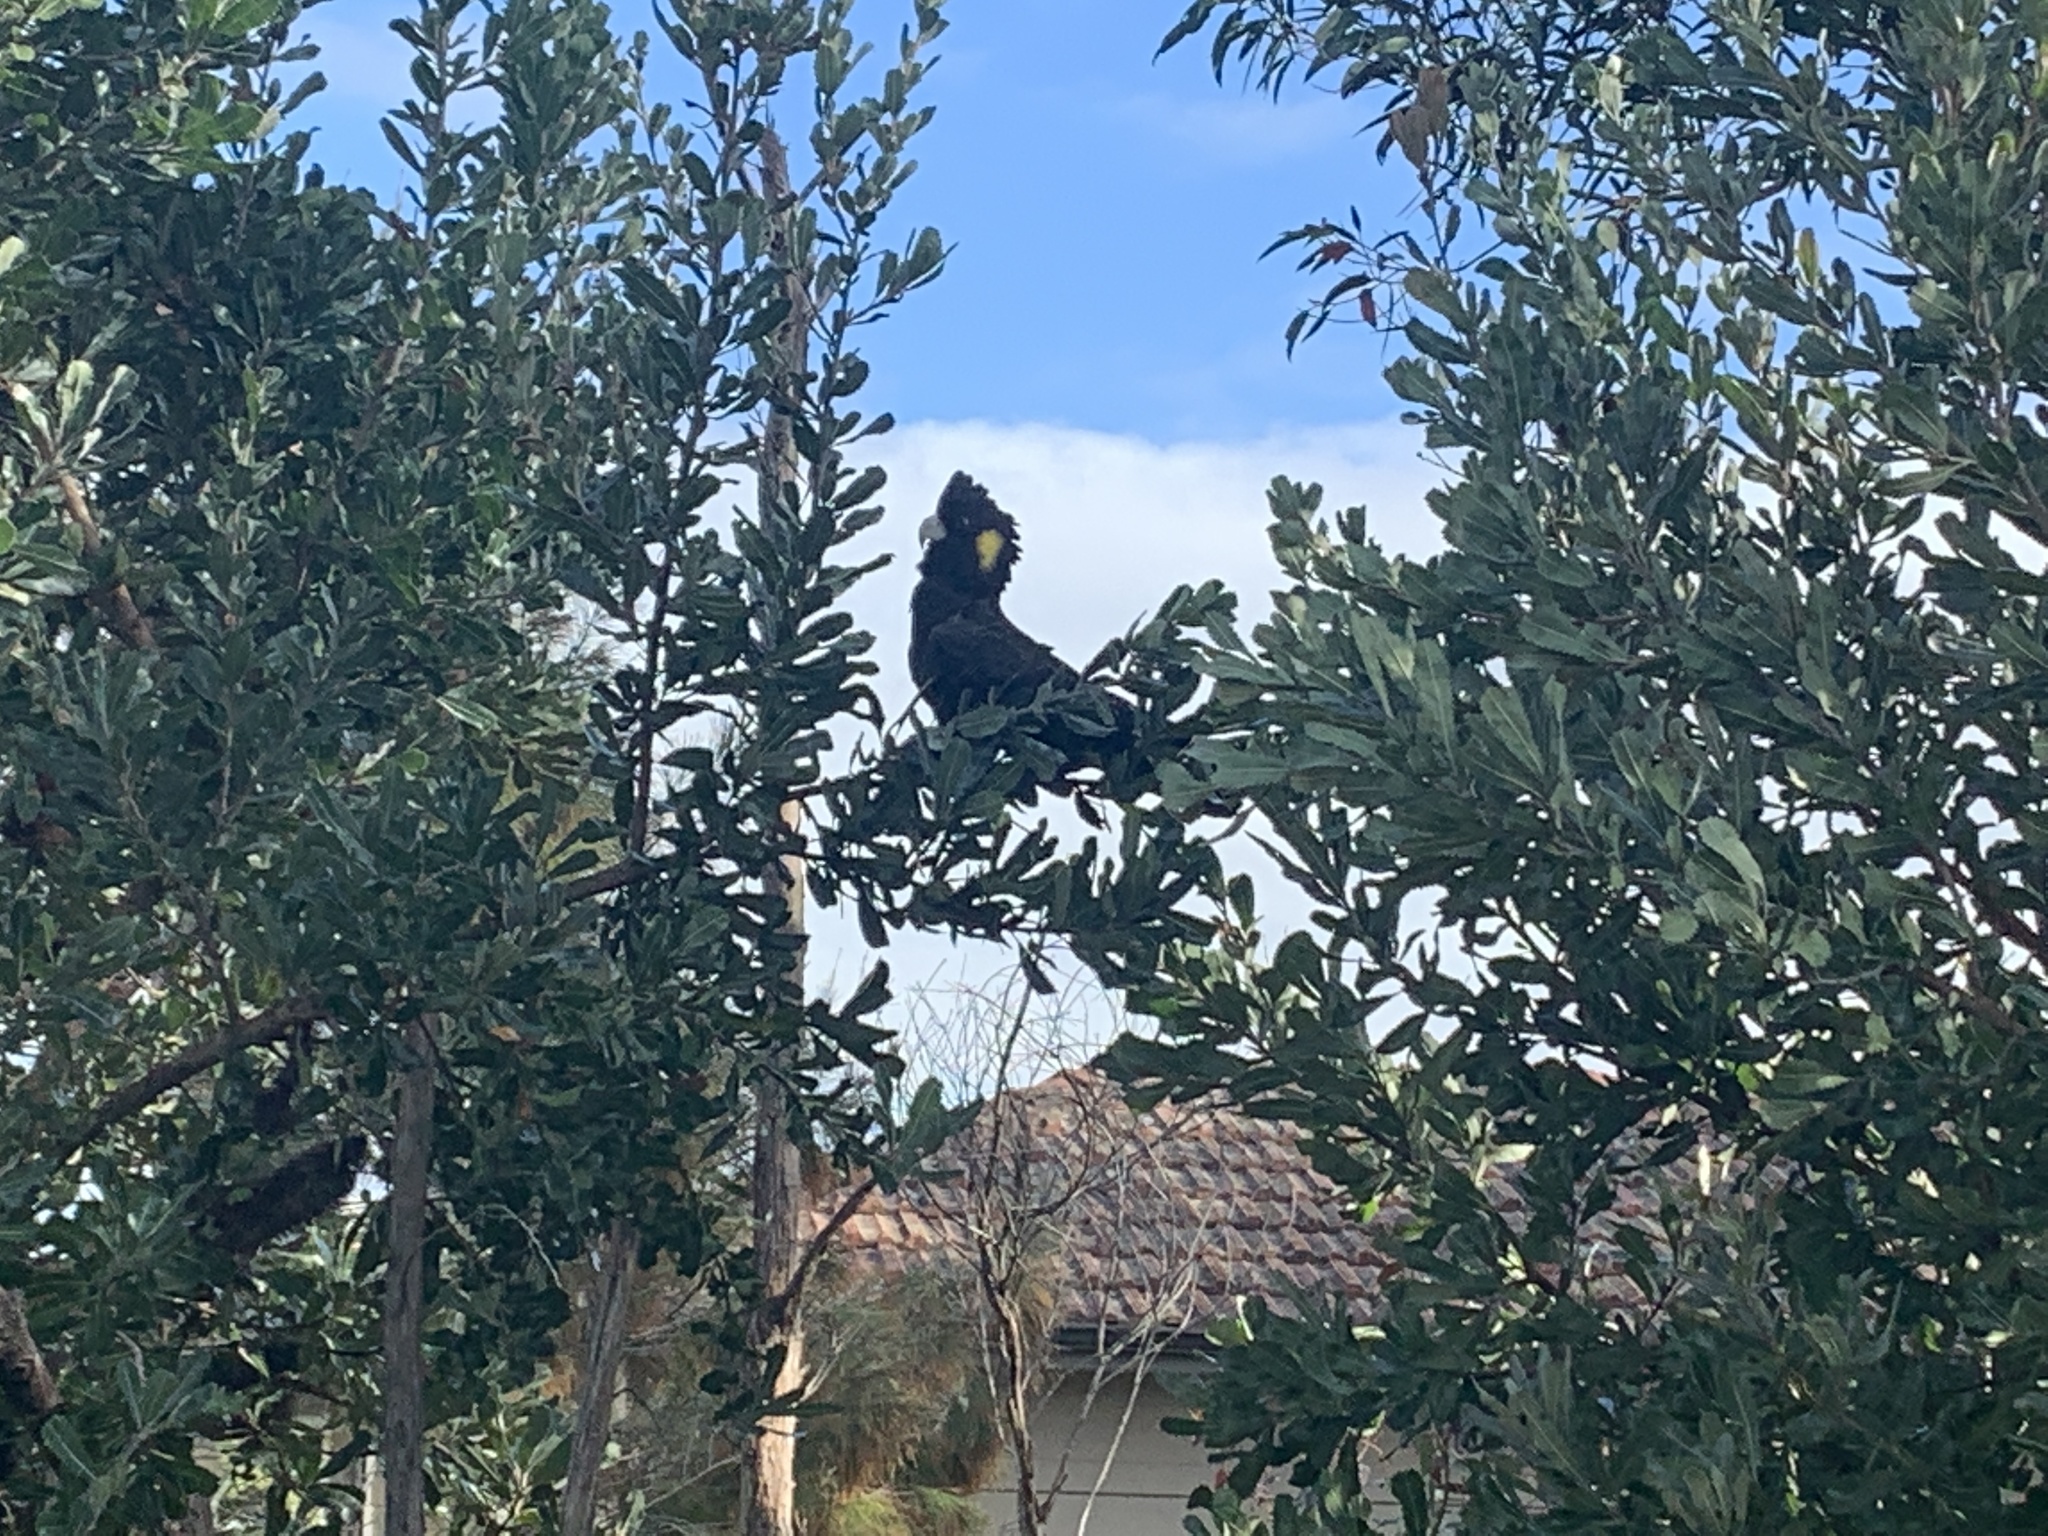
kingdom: Animalia
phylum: Chordata
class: Aves
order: Psittaciformes
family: Cacatuidae
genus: Zanda
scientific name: Zanda funerea
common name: Yellow-tailed black-cockatoo
